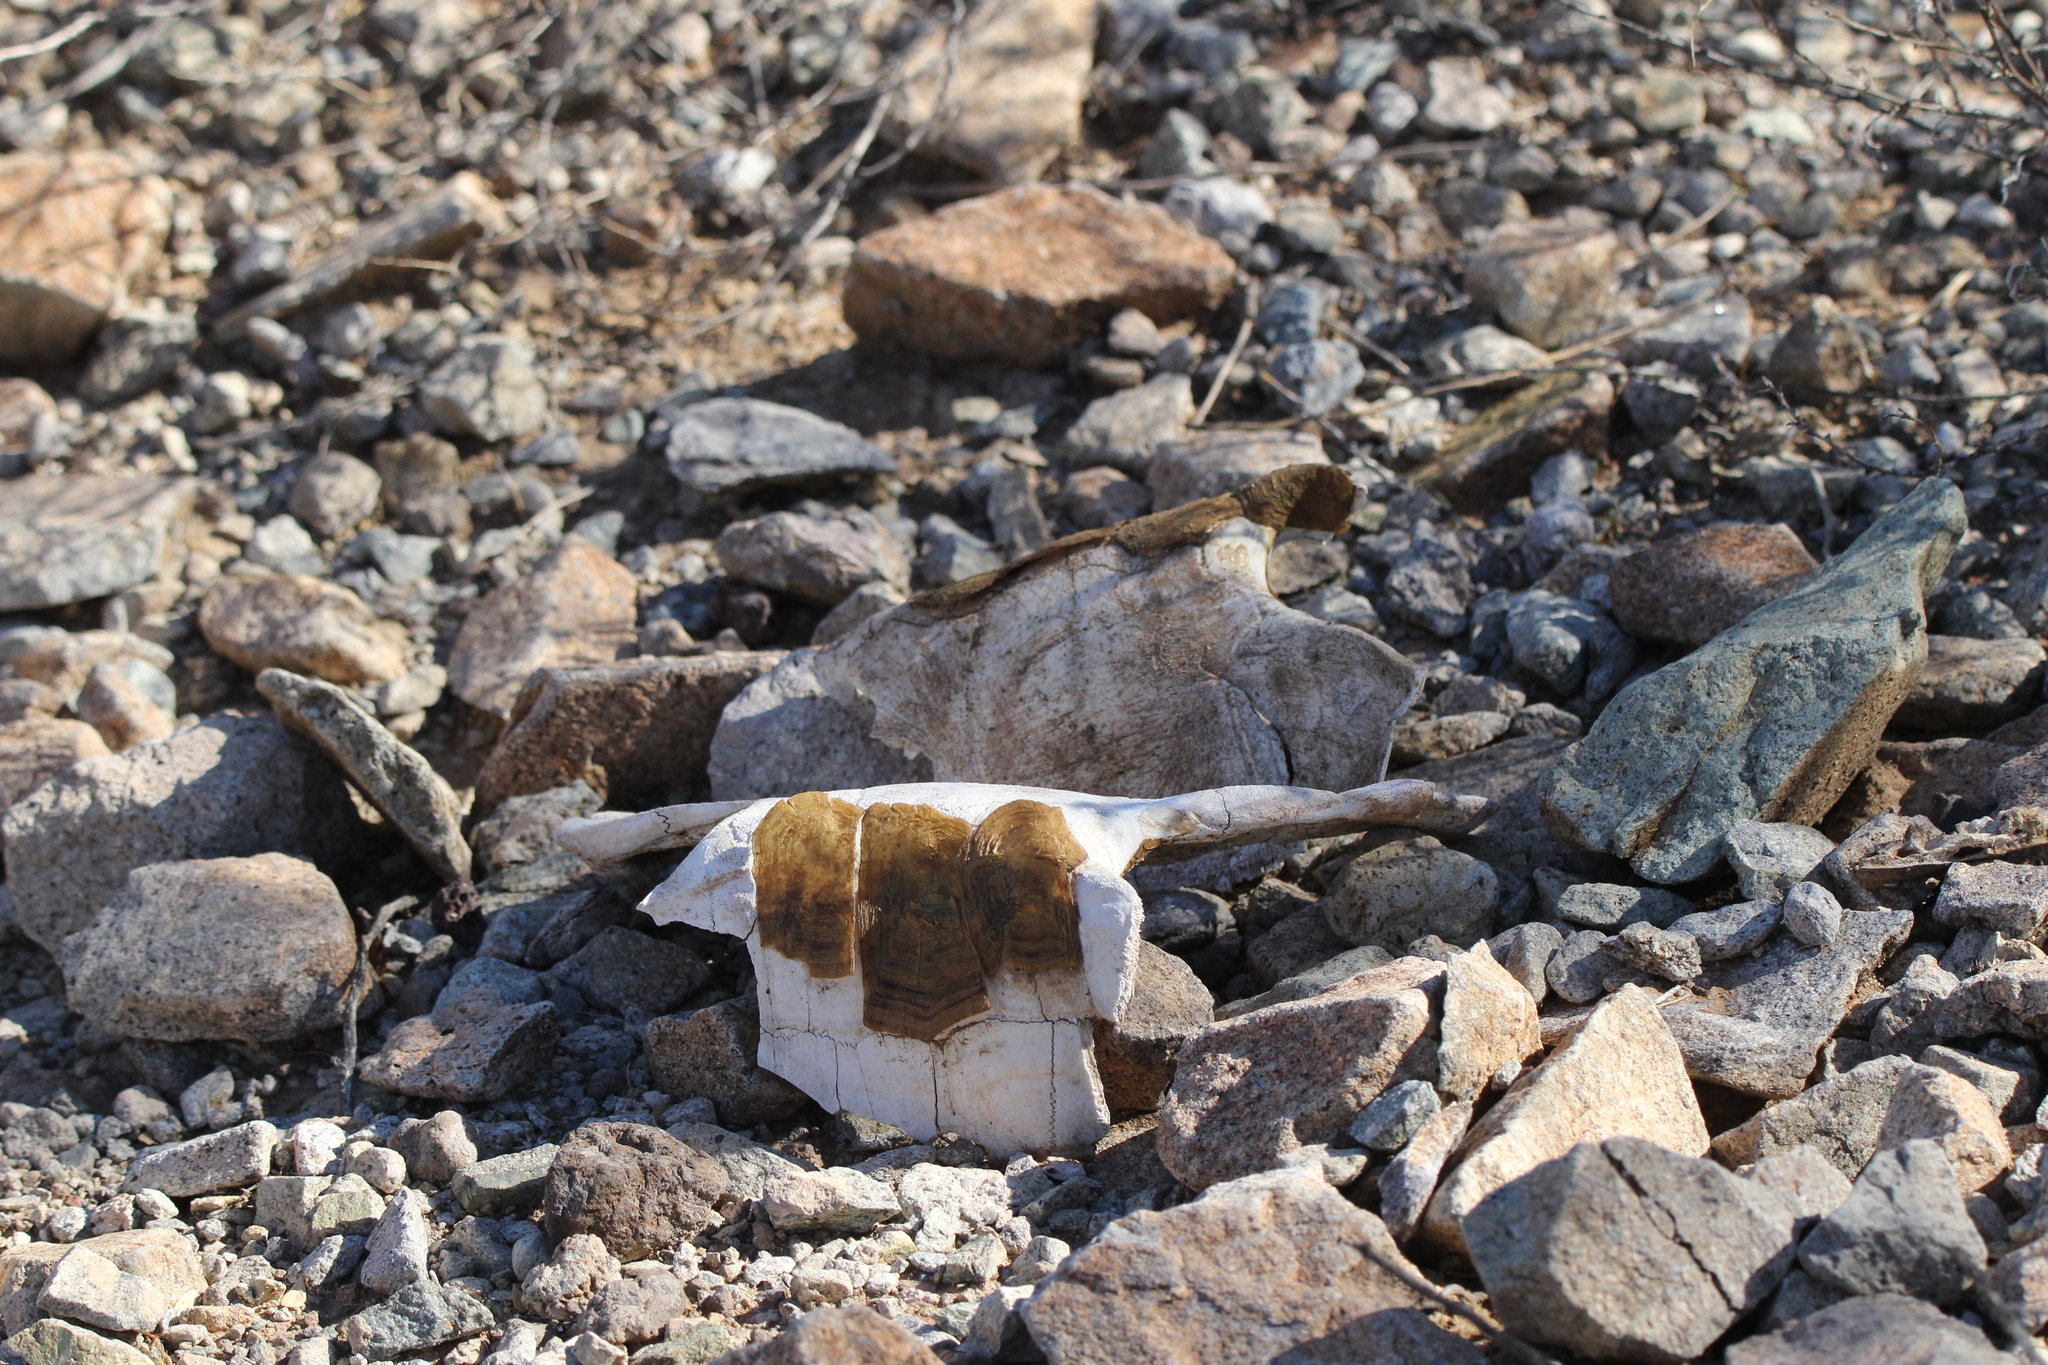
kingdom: Animalia
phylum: Chordata
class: Testudines
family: Testudinidae
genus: Gopherus
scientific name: Gopherus morafkai
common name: Sonoran desert tortoise
